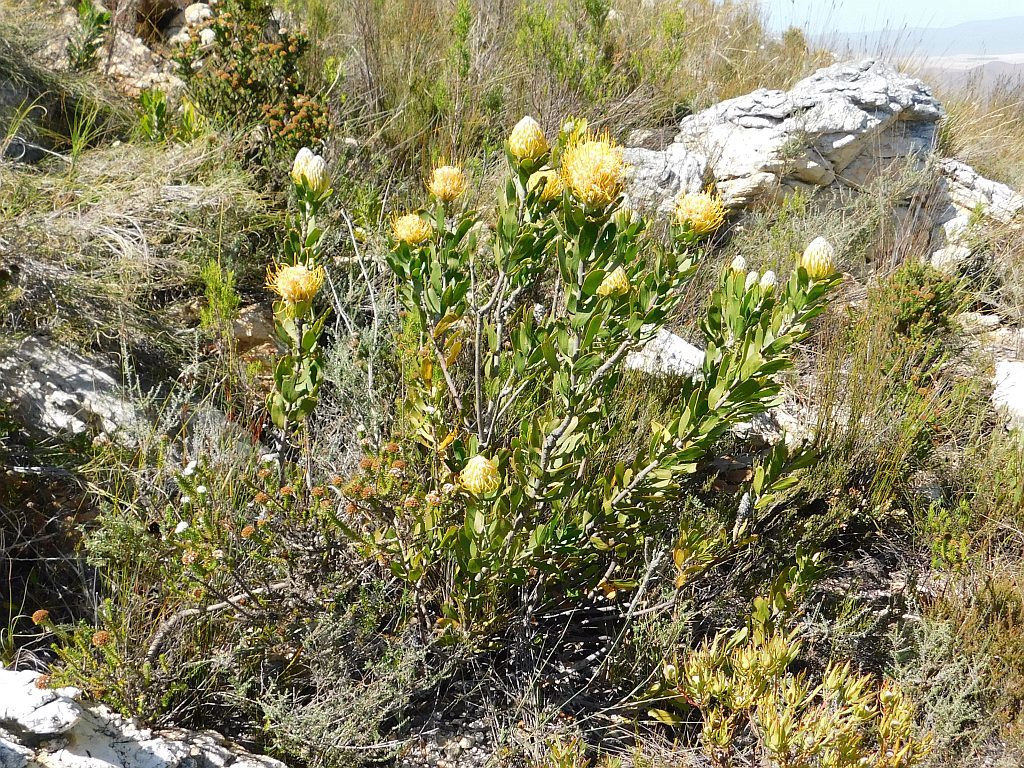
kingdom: Plantae
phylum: Tracheophyta
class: Magnoliopsida
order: Proteales
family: Proteaceae
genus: Leucospermum
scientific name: Leucospermum cuneiforme
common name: Common pincushion
